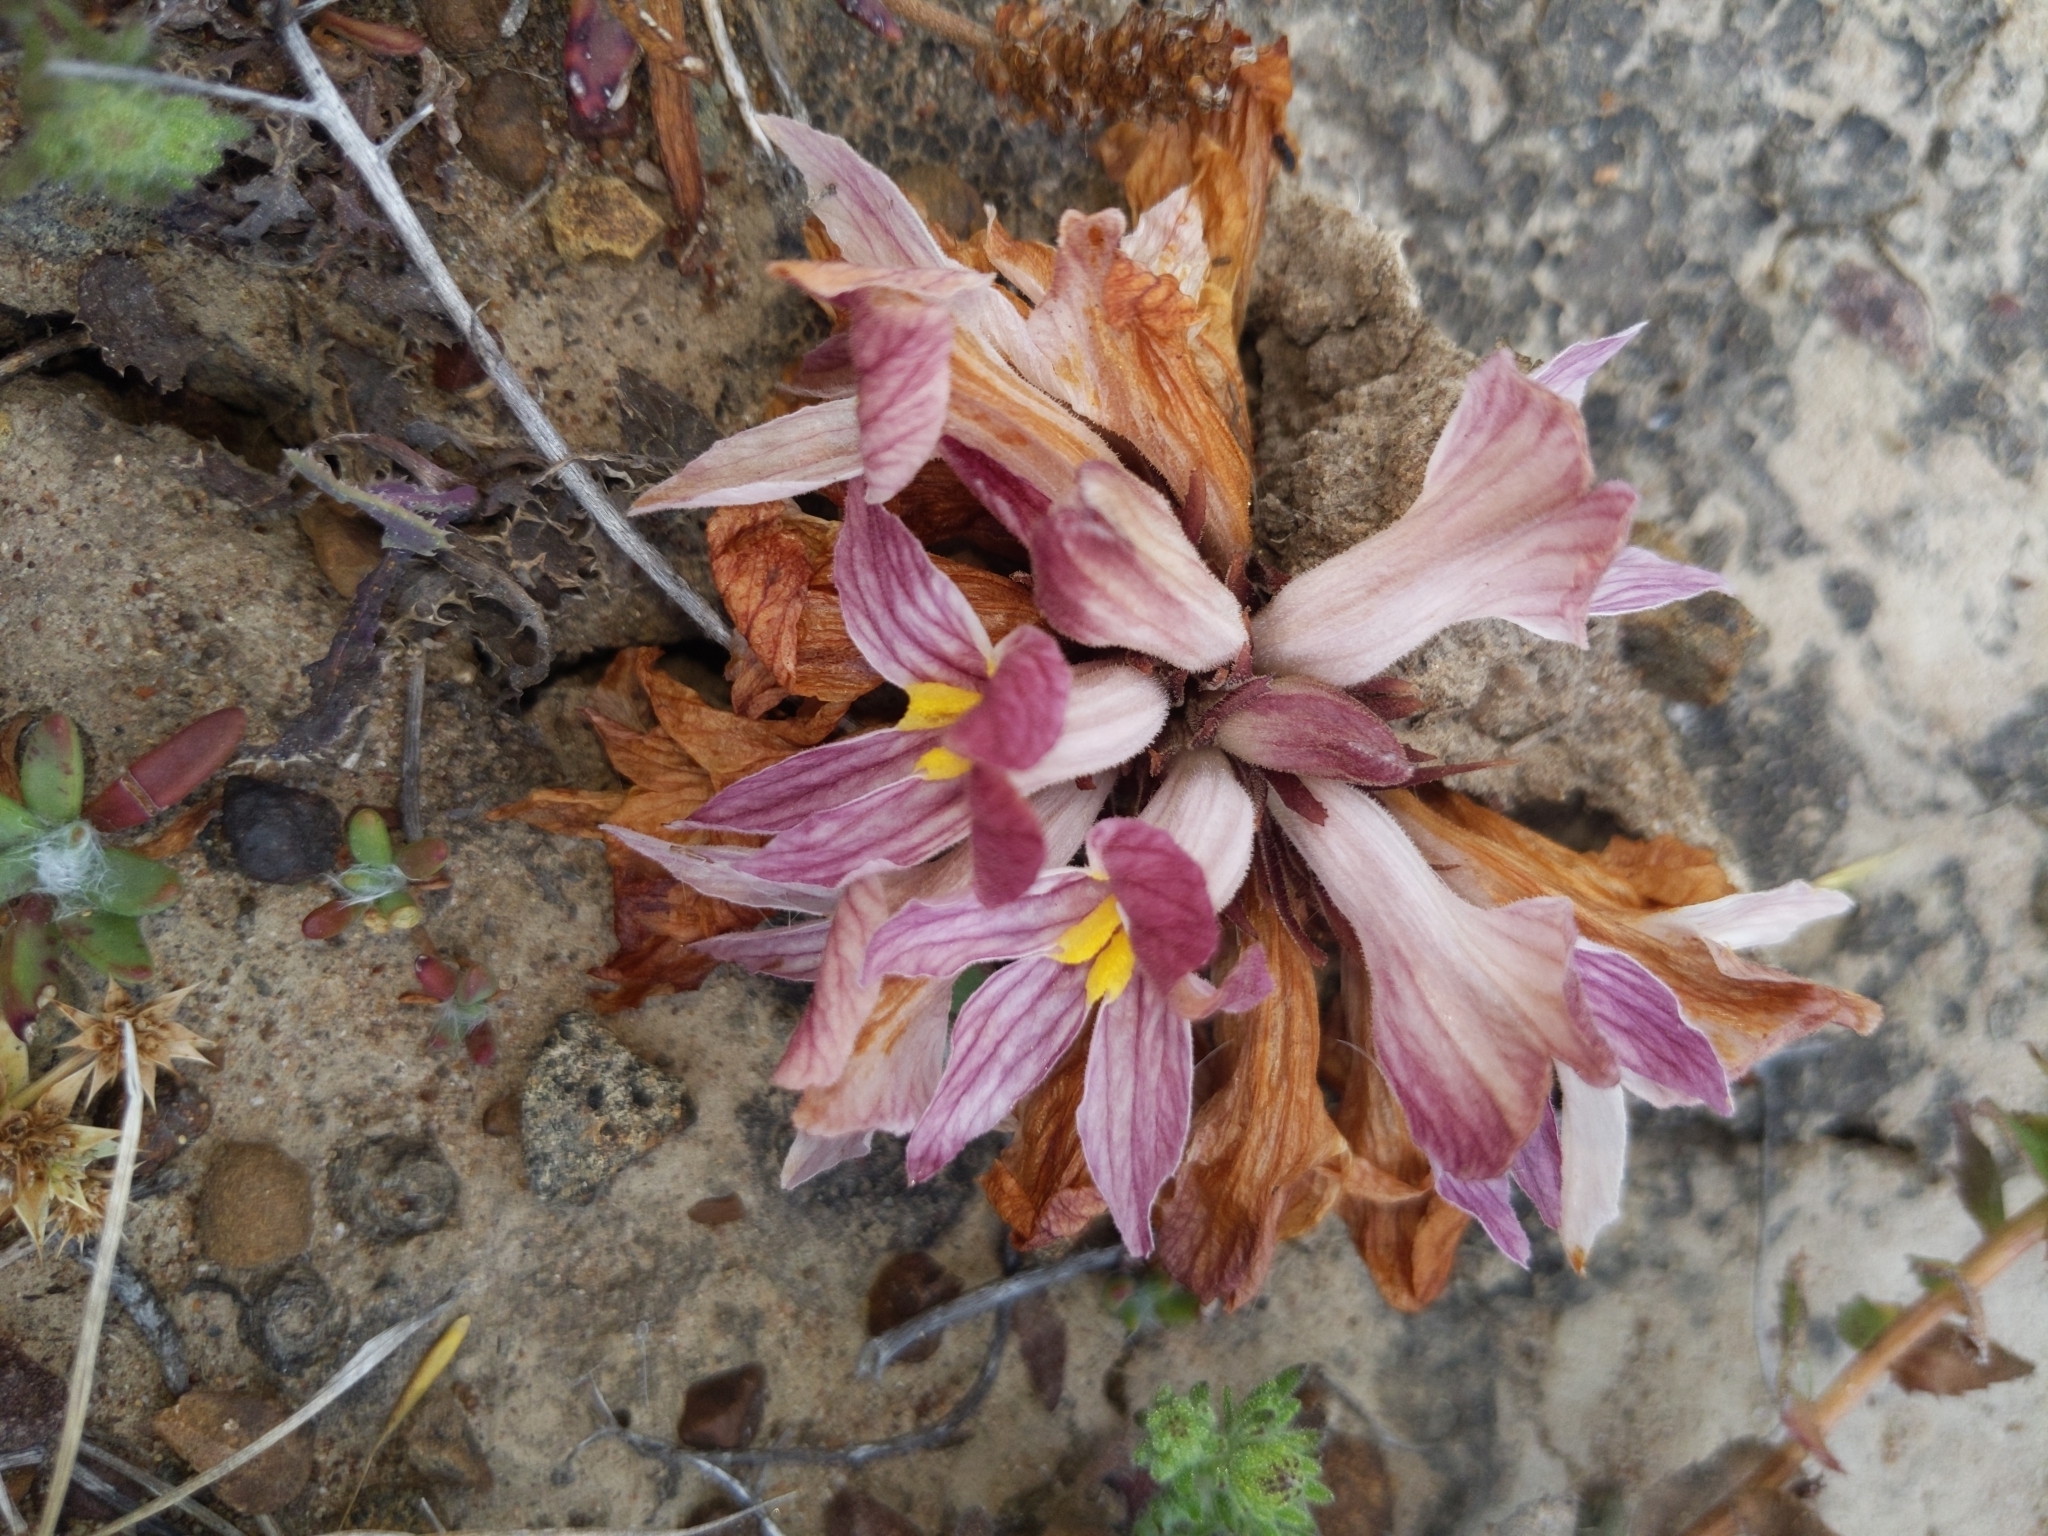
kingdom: Plantae
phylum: Tracheophyta
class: Magnoliopsida
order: Lamiales
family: Orobanchaceae
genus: Aphyllon
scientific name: Aphyllon californicum
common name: California broomrape
